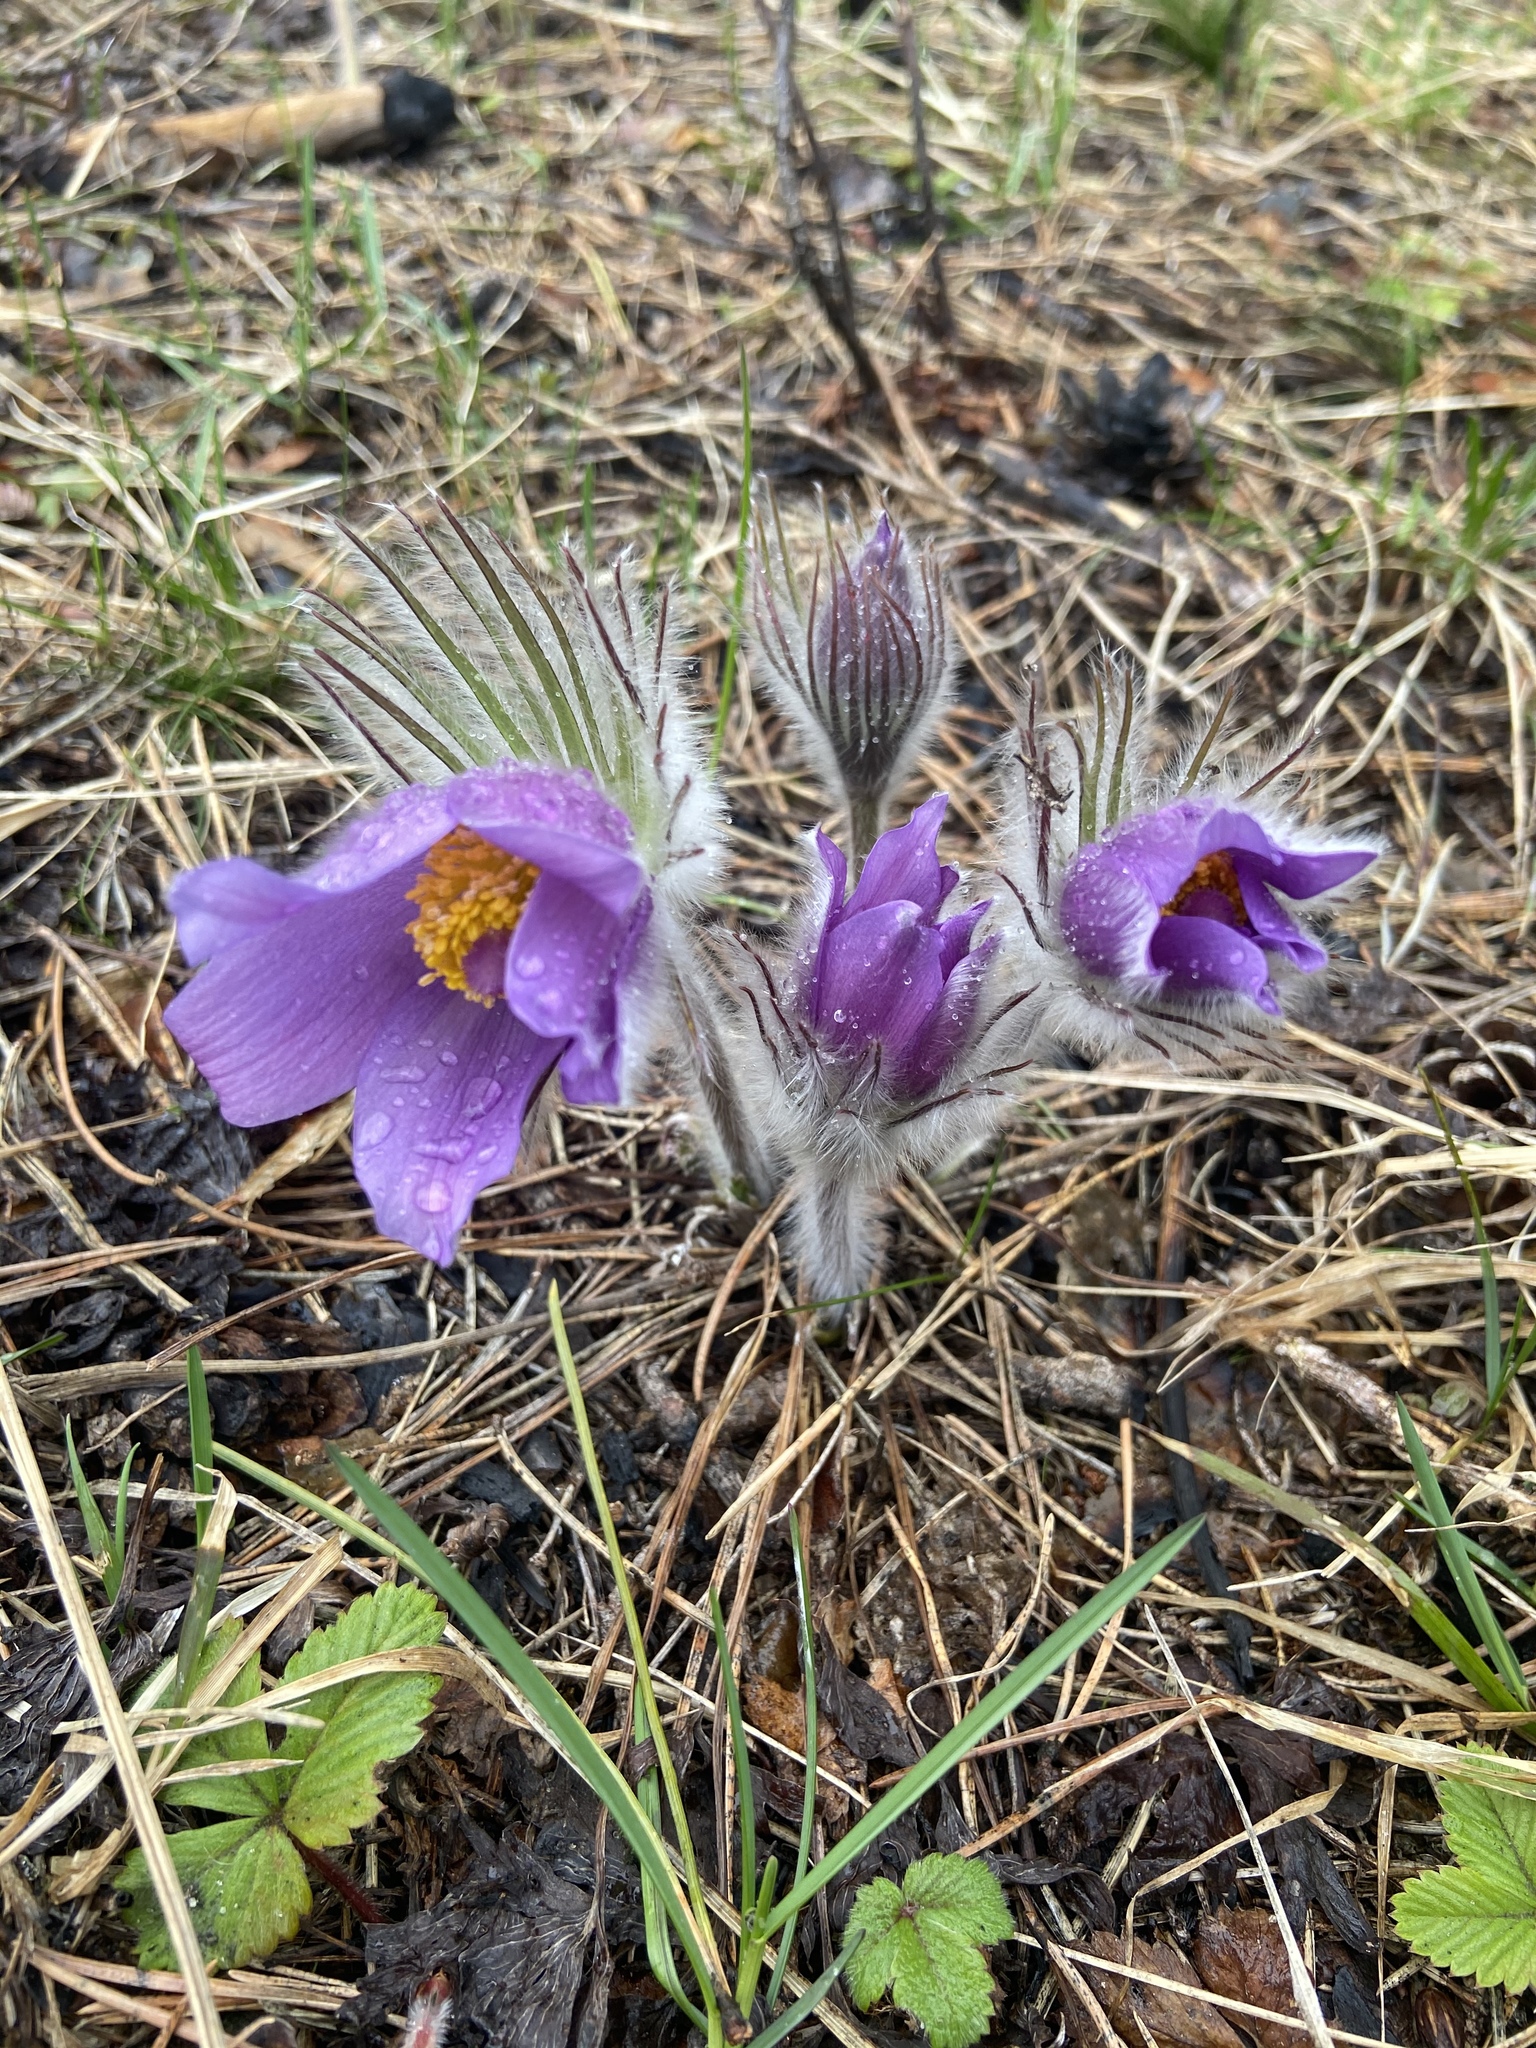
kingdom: Plantae
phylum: Tracheophyta
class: Magnoliopsida
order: Ranunculales
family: Ranunculaceae
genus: Pulsatilla
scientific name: Pulsatilla patens
